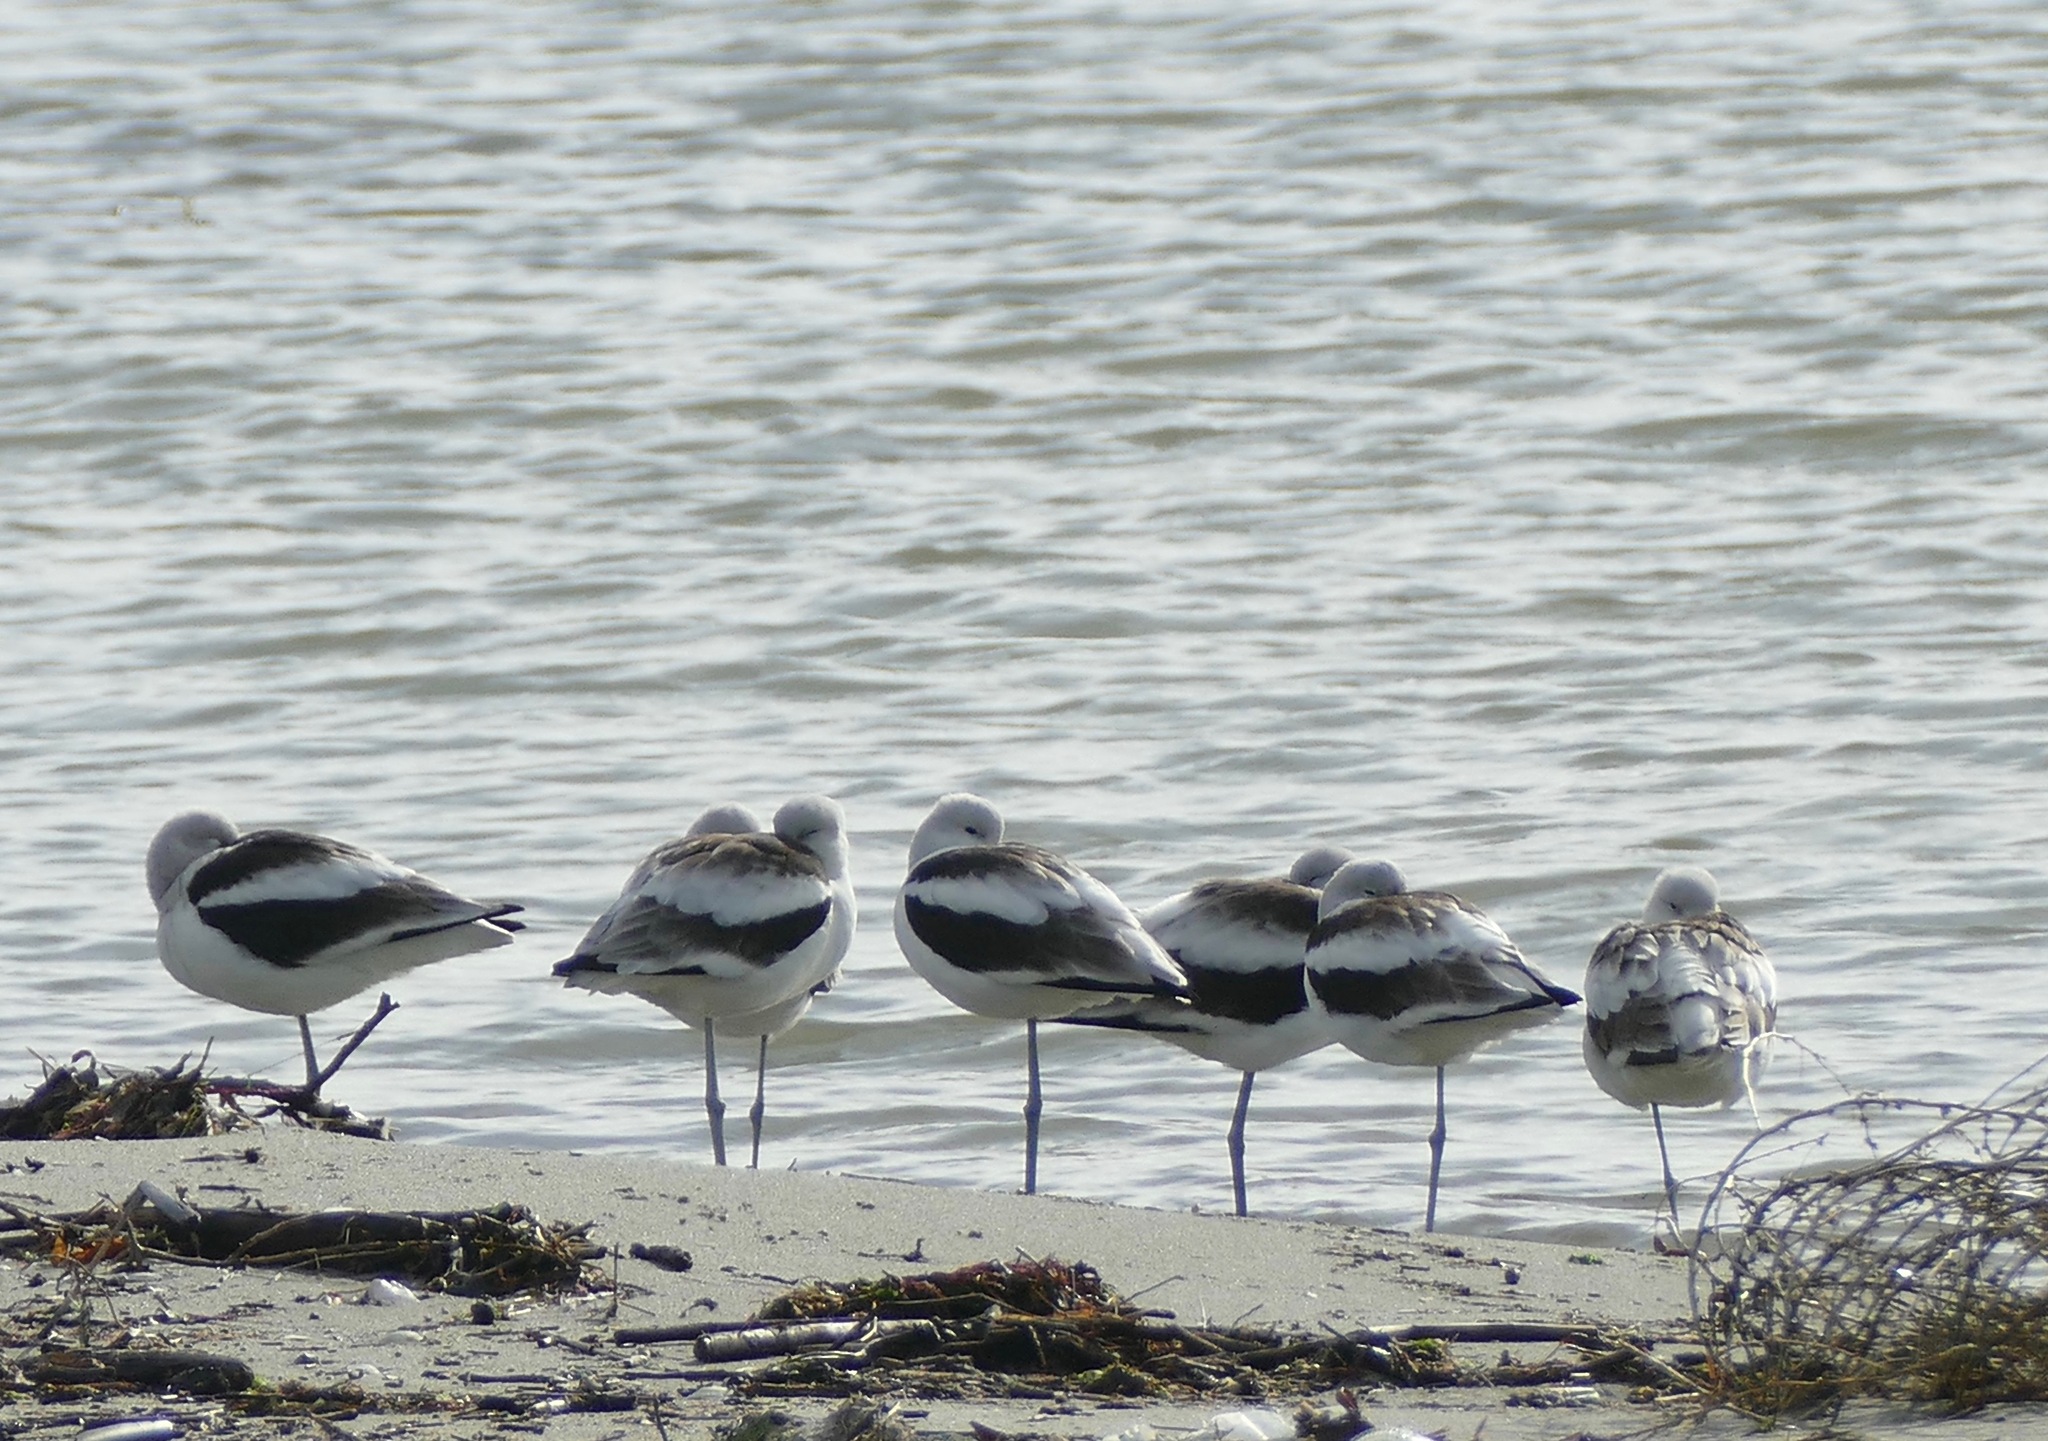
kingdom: Animalia
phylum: Chordata
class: Aves
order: Charadriiformes
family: Recurvirostridae
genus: Recurvirostra
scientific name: Recurvirostra americana
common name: American avocet
